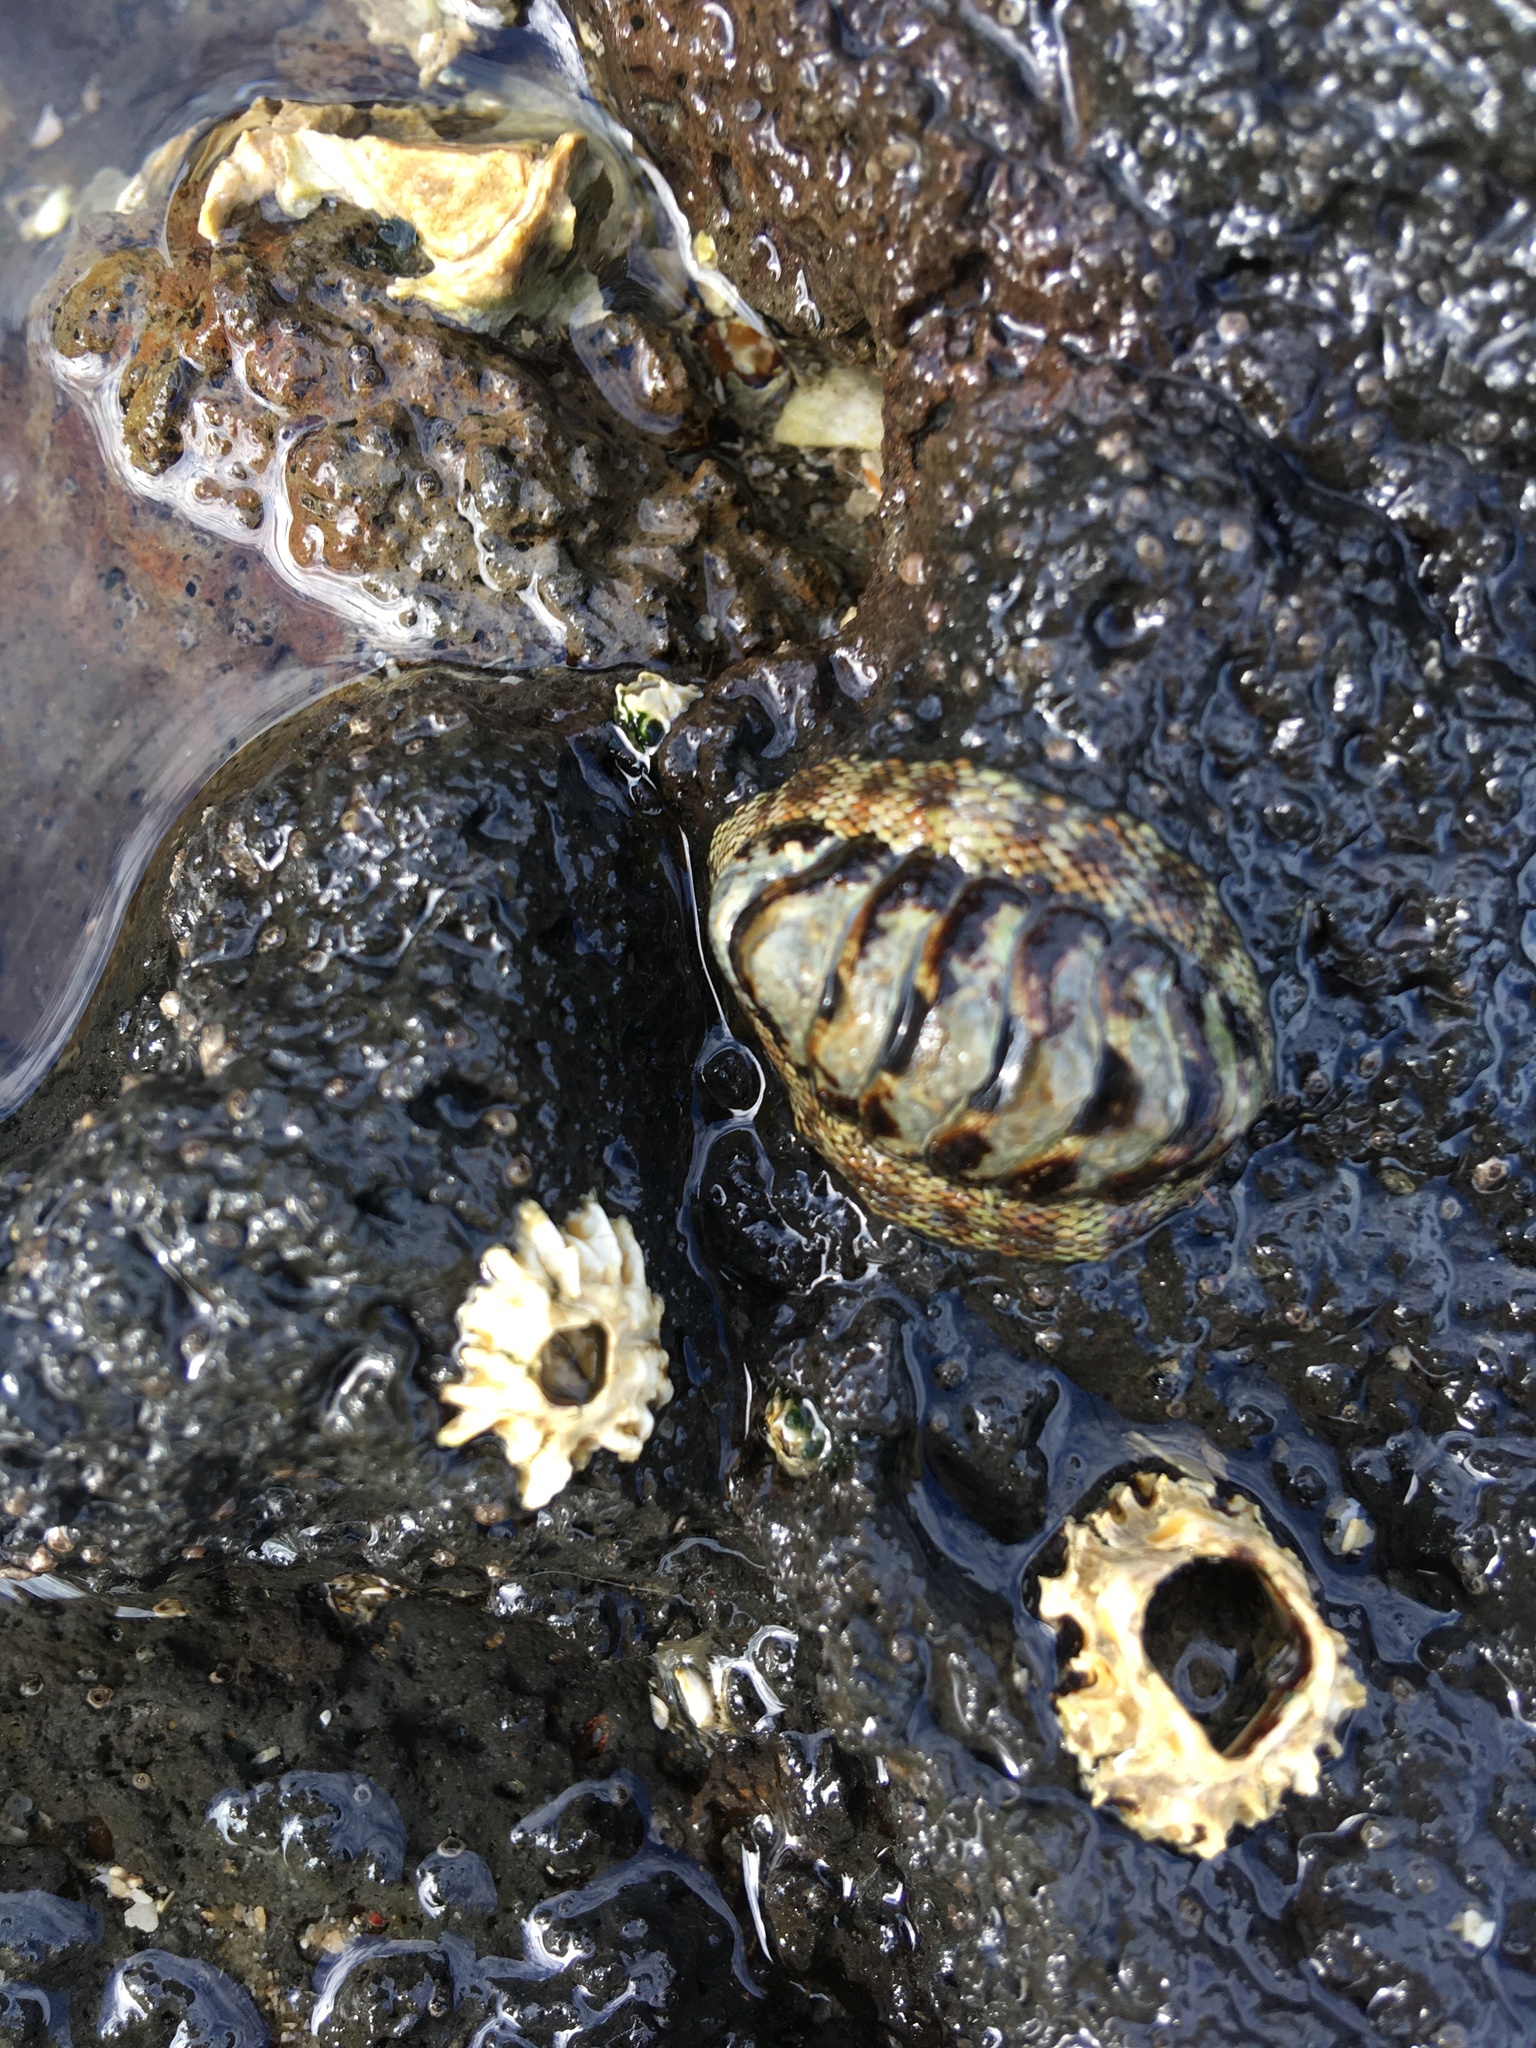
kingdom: Animalia
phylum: Mollusca
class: Polyplacophora
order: Chitonida
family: Chitonidae
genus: Sypharochiton
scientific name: Sypharochiton pelliserpentis
